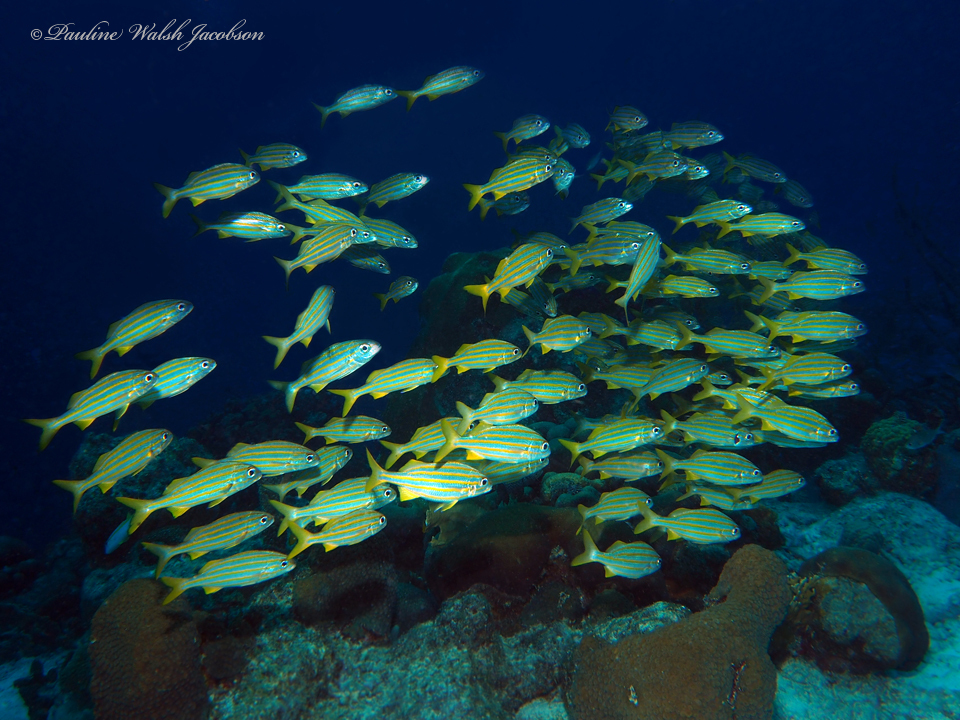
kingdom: Animalia
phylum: Chordata
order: Perciformes
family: Haemulidae
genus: Haemulon
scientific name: Haemulon chrysargyreum
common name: Smallmouth grunt
